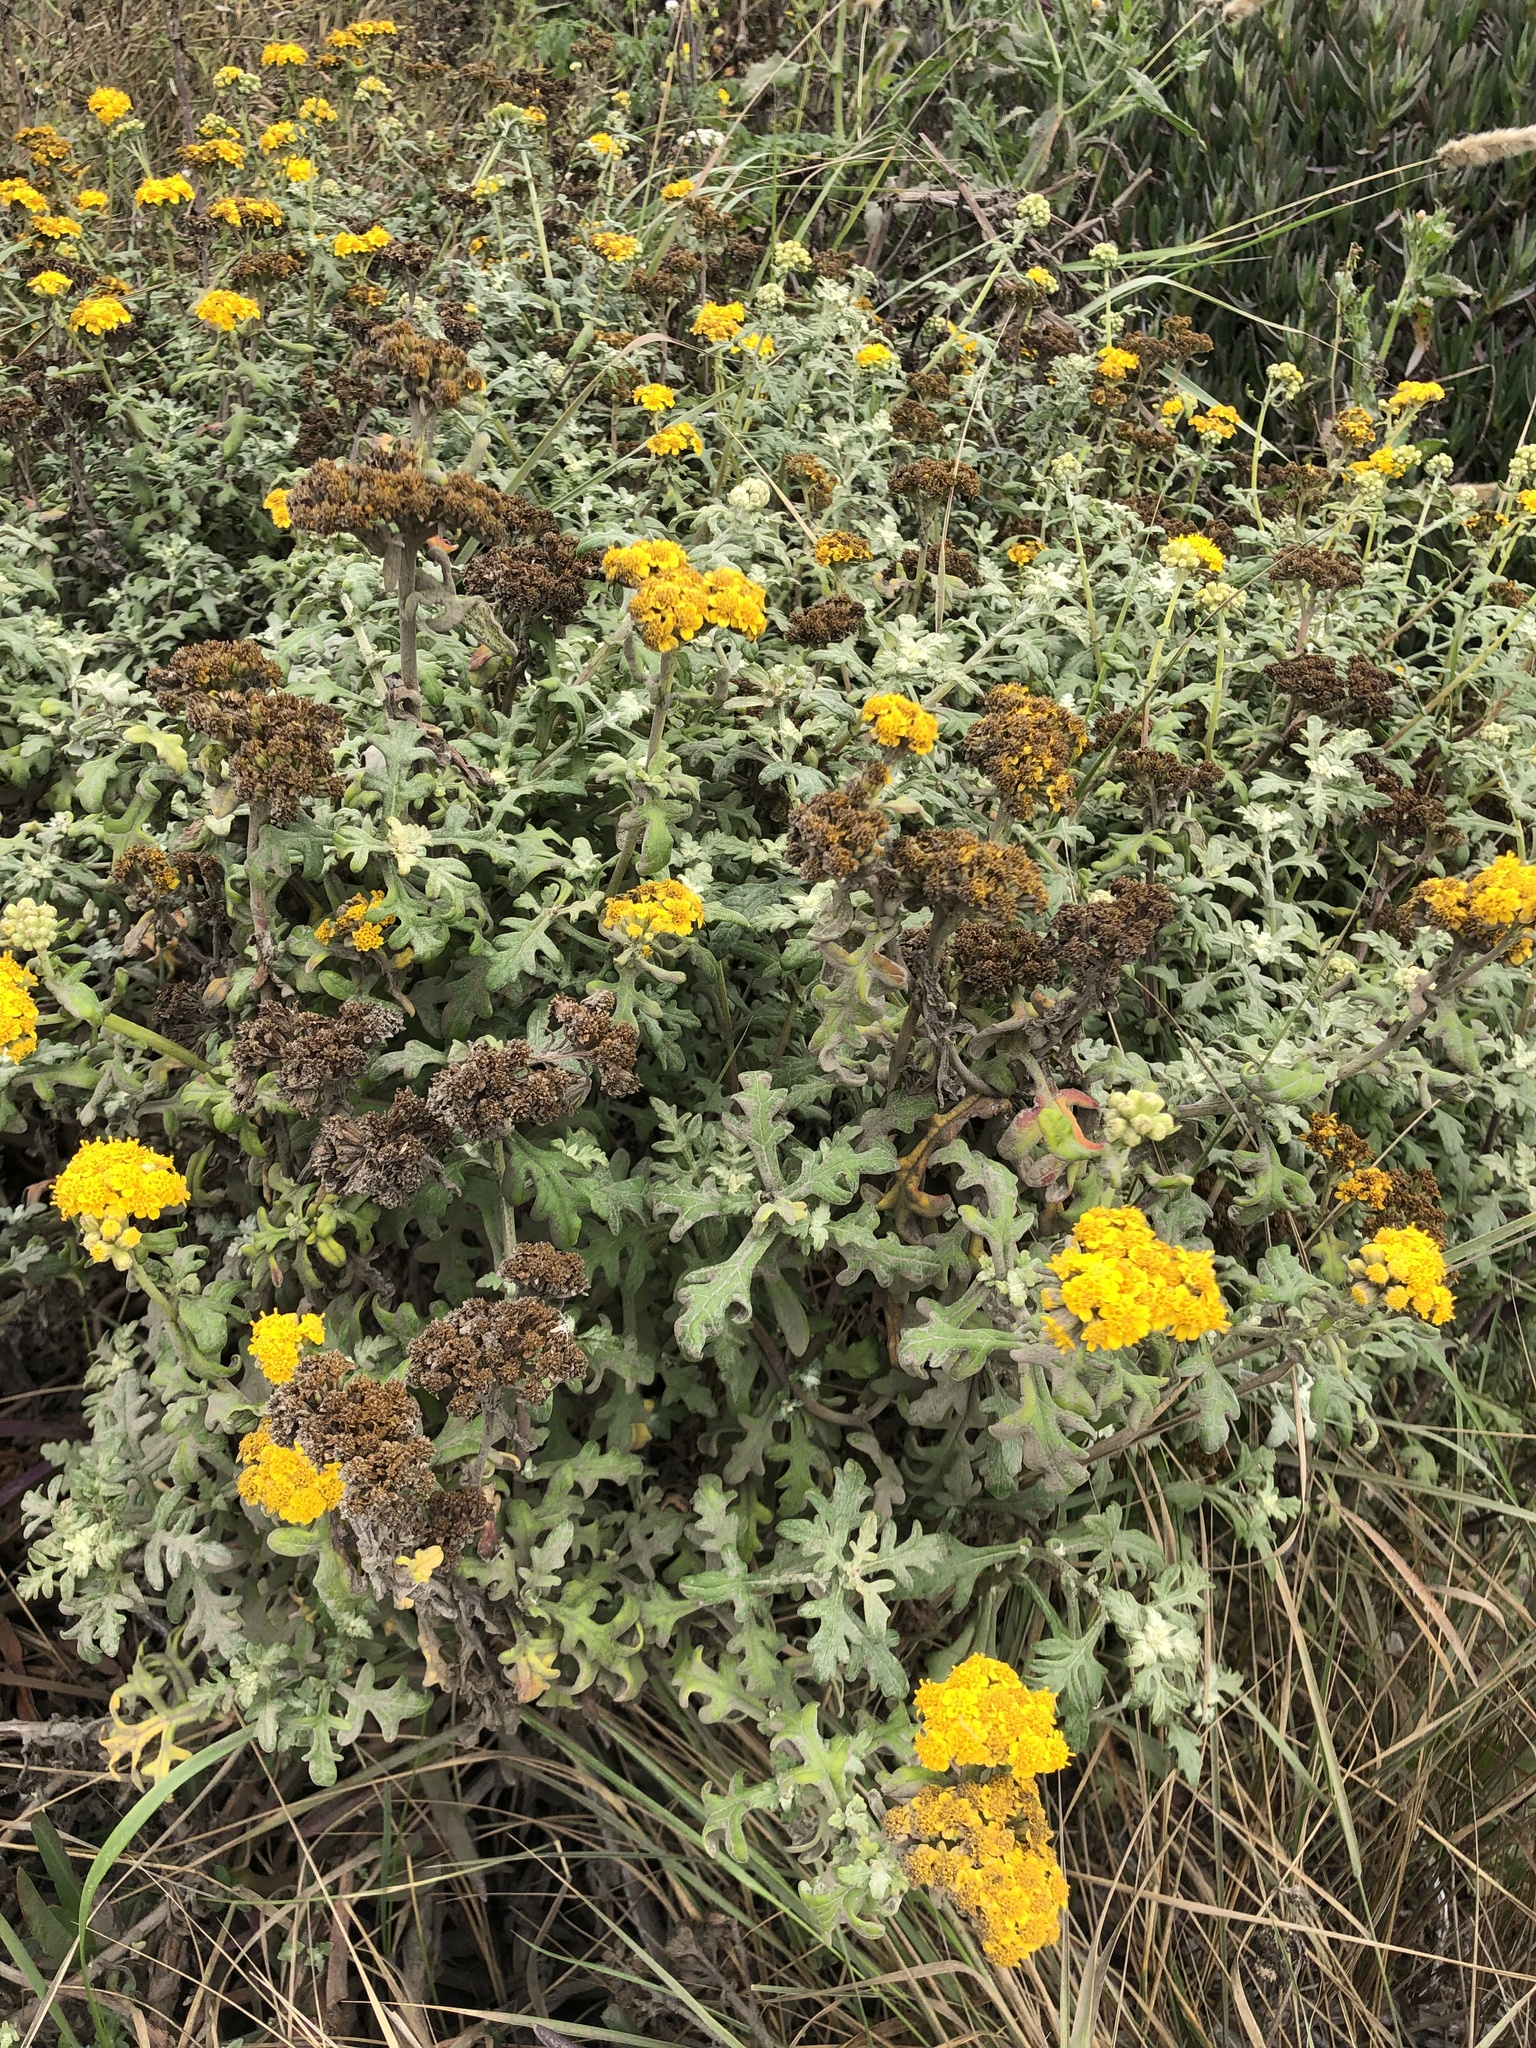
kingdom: Plantae
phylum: Tracheophyta
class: Magnoliopsida
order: Asterales
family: Asteraceae
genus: Eriophyllum
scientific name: Eriophyllum staechadifolium
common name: Lizardtail
